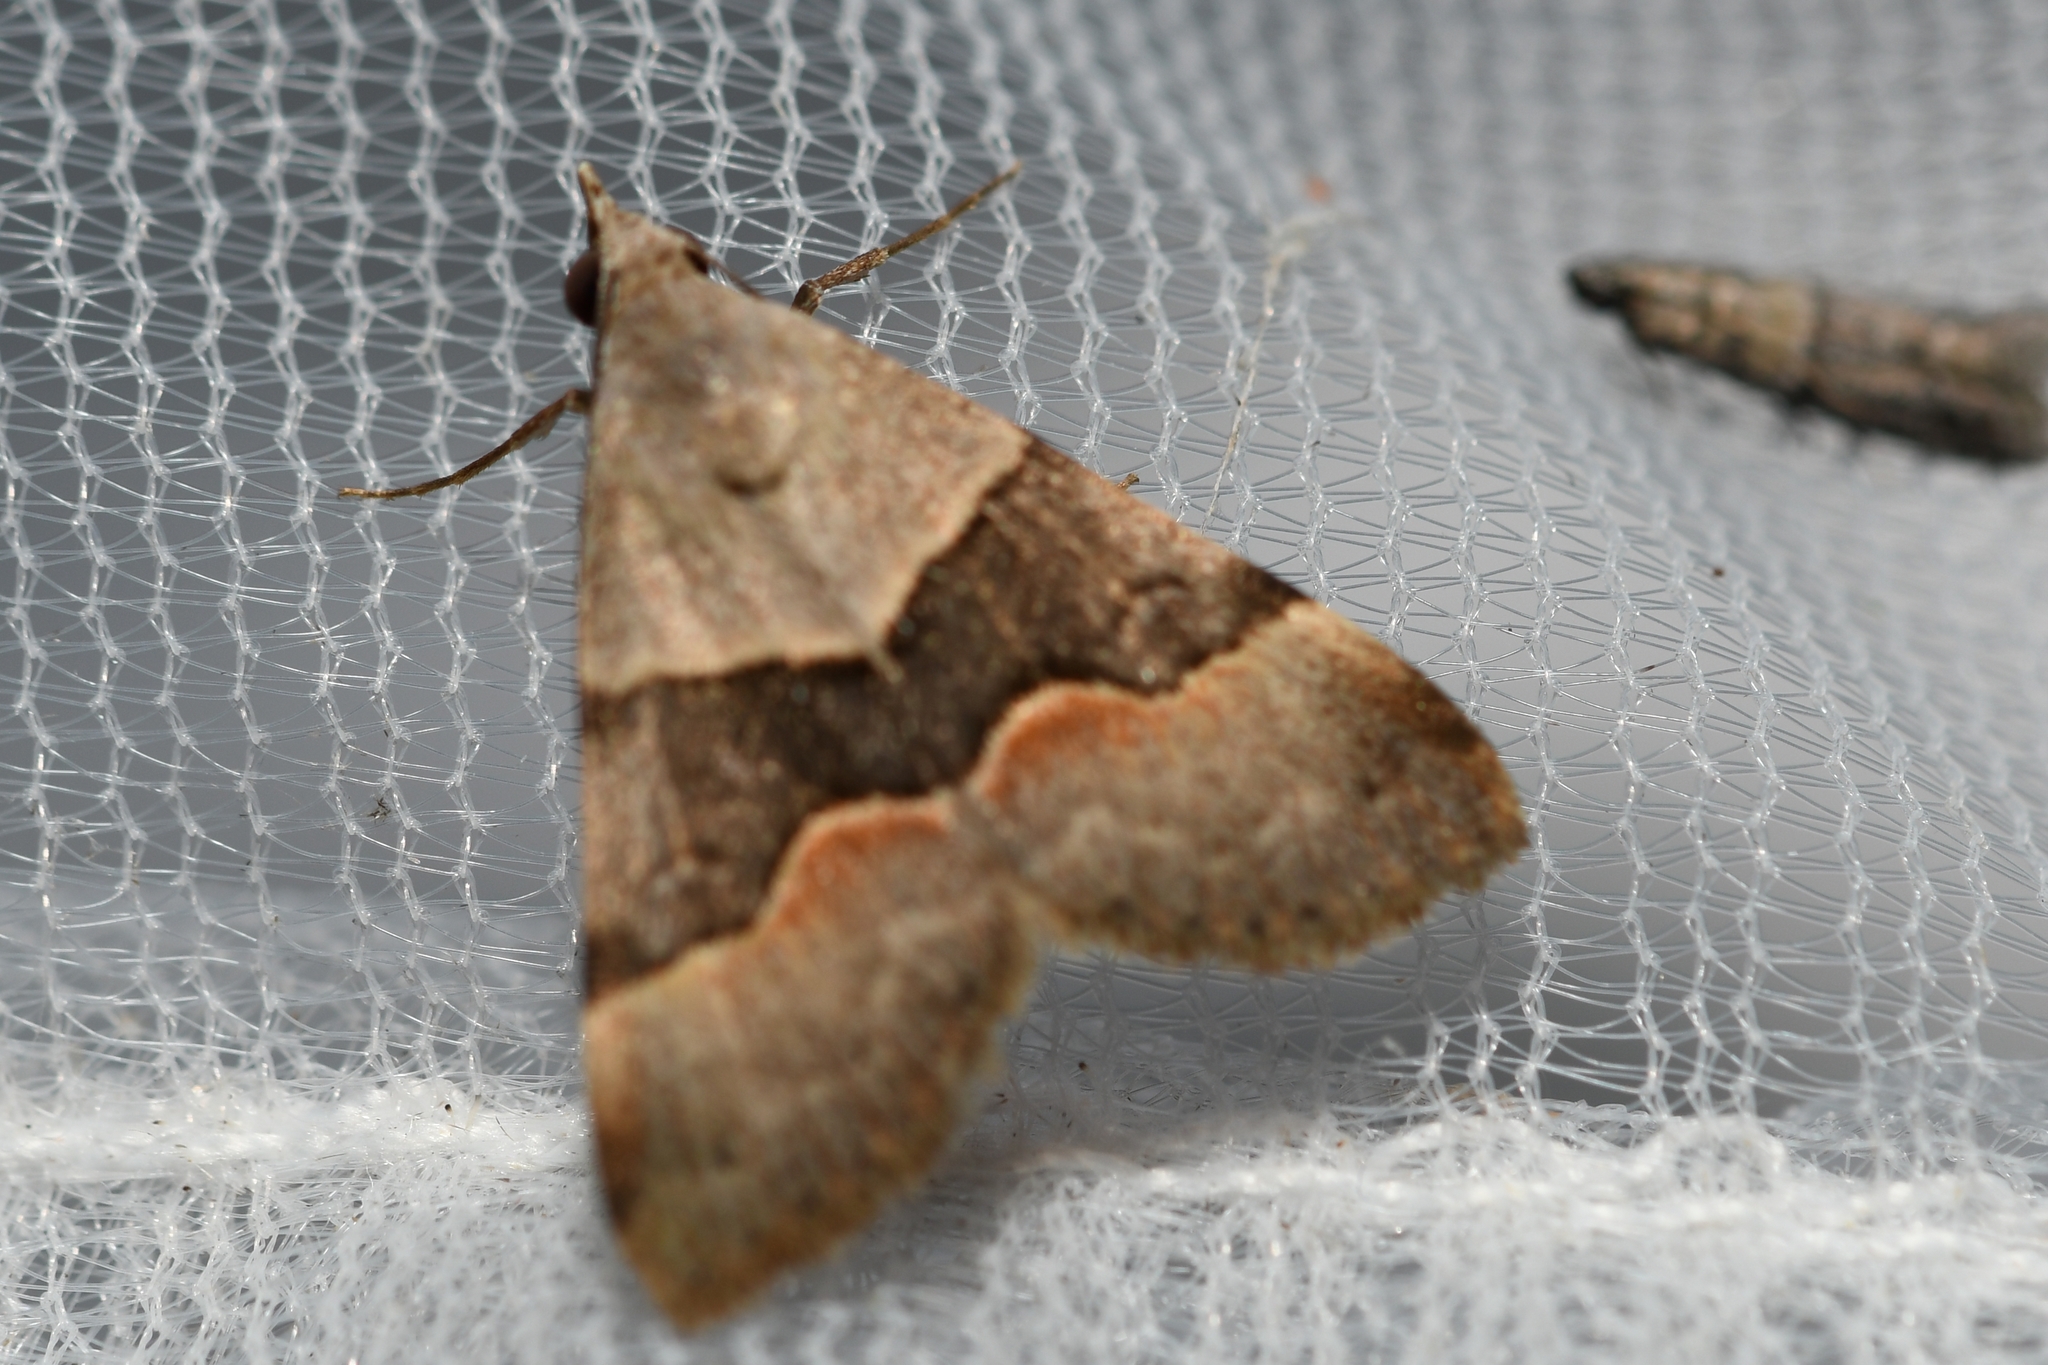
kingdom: Animalia
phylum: Arthropoda
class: Insecta
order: Lepidoptera
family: Erebidae
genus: Hemeroplanis
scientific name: Hemeroplanis incusalis
